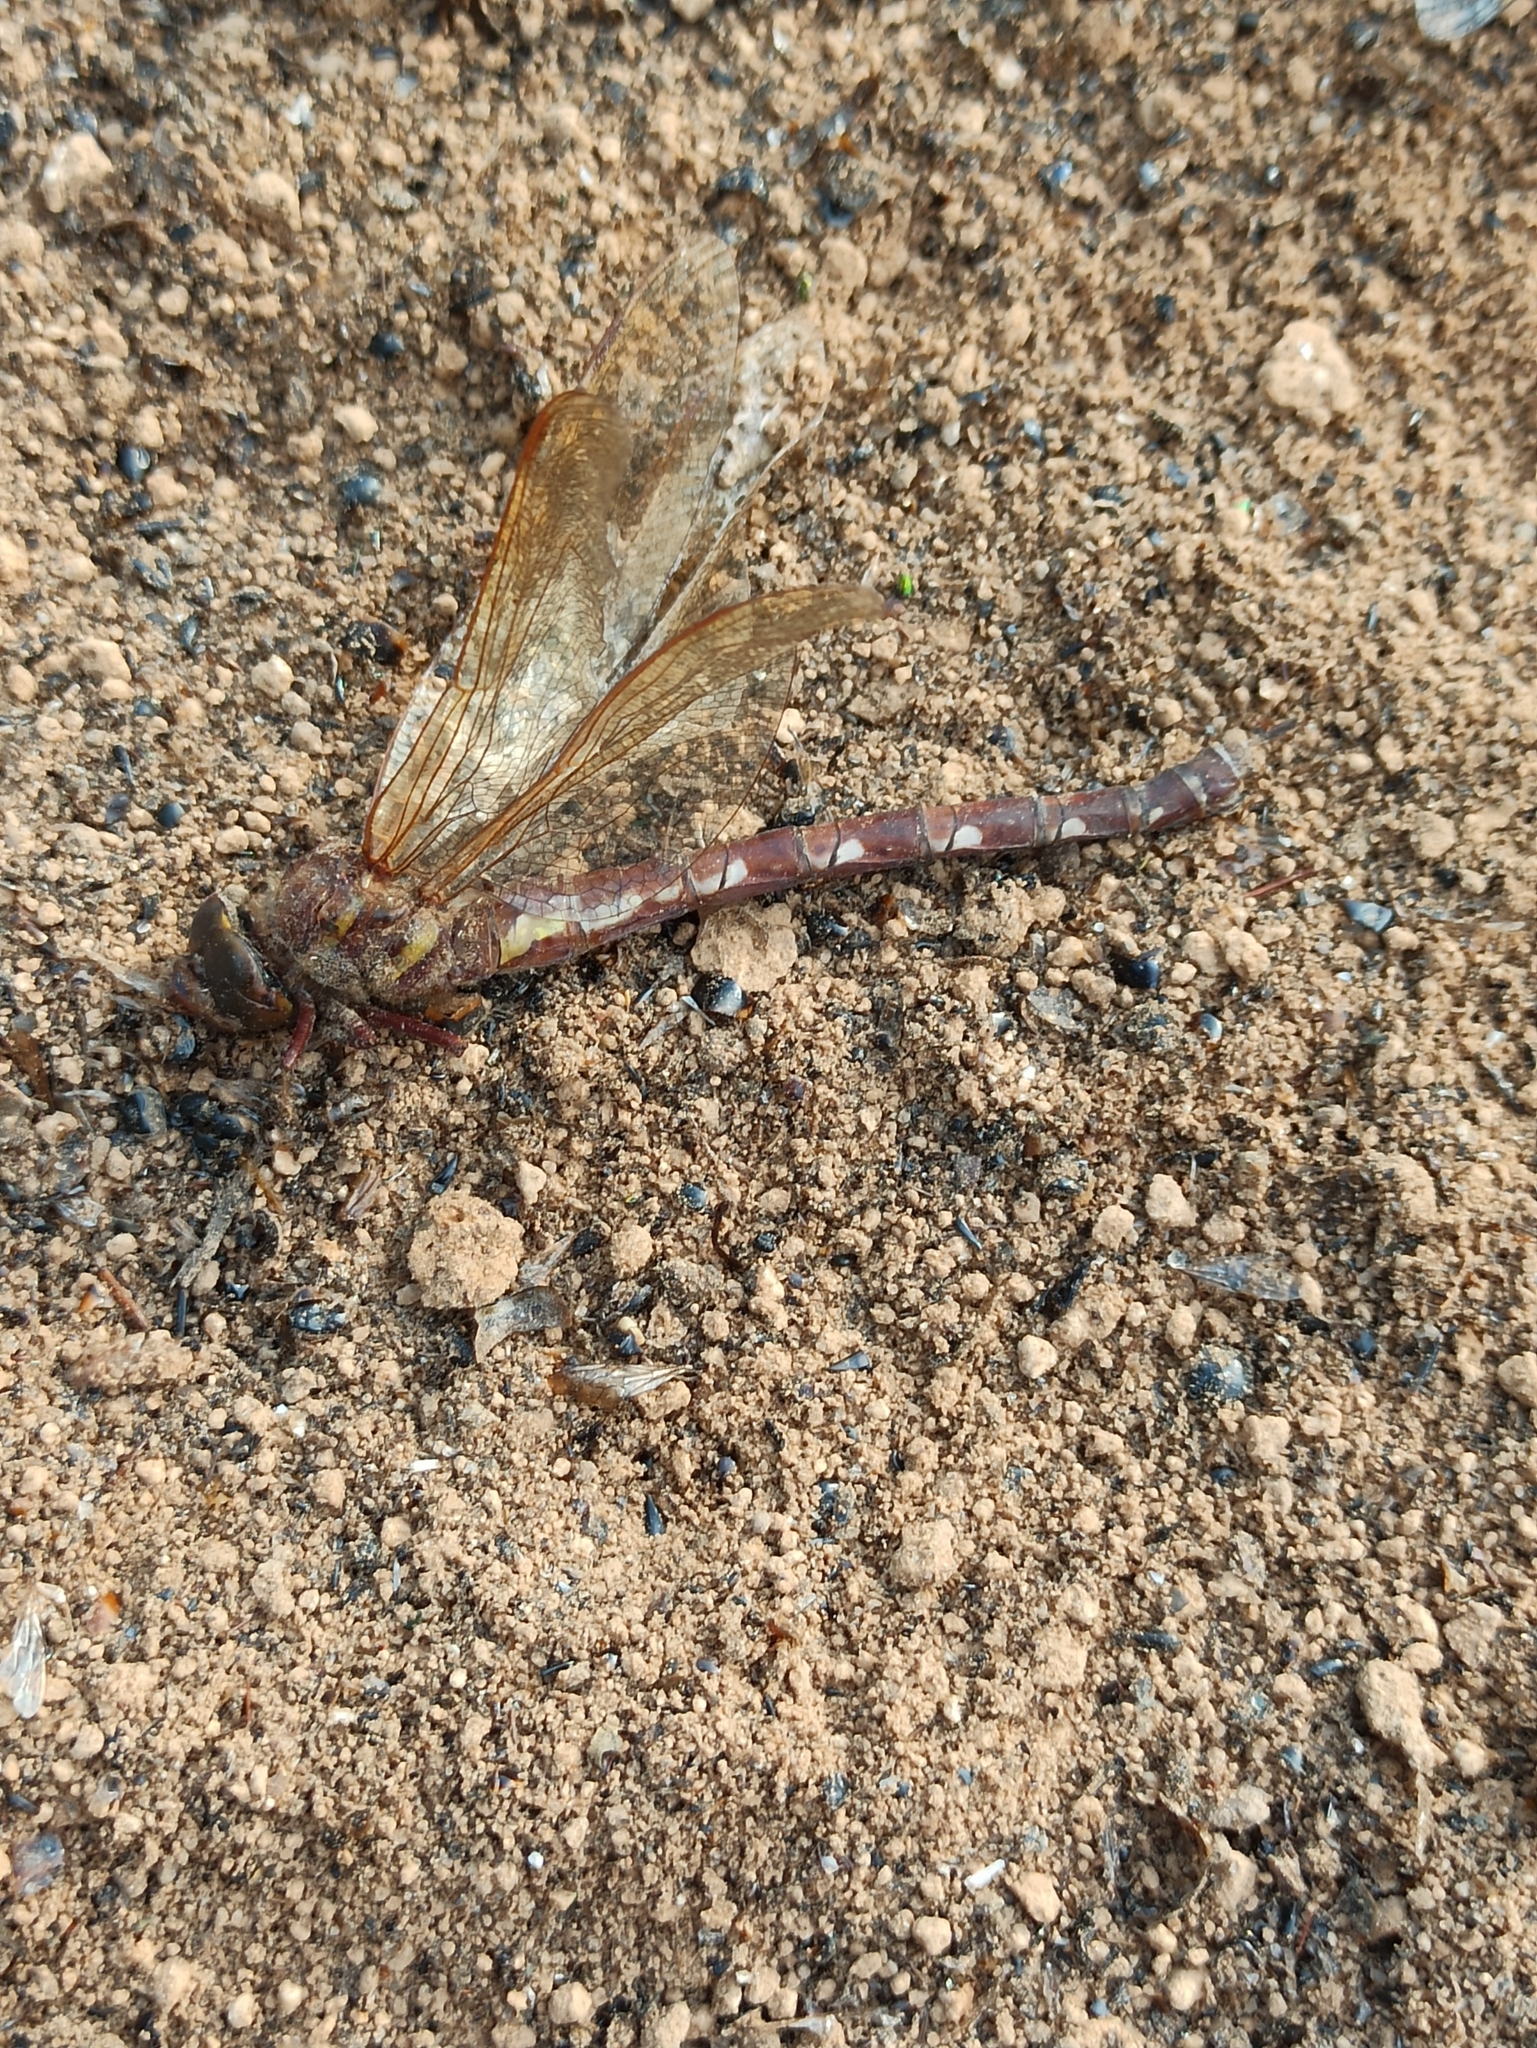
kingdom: Animalia
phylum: Arthropoda
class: Insecta
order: Odonata
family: Aeshnidae
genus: Aeshna
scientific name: Aeshna grandis
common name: Brown hawker
